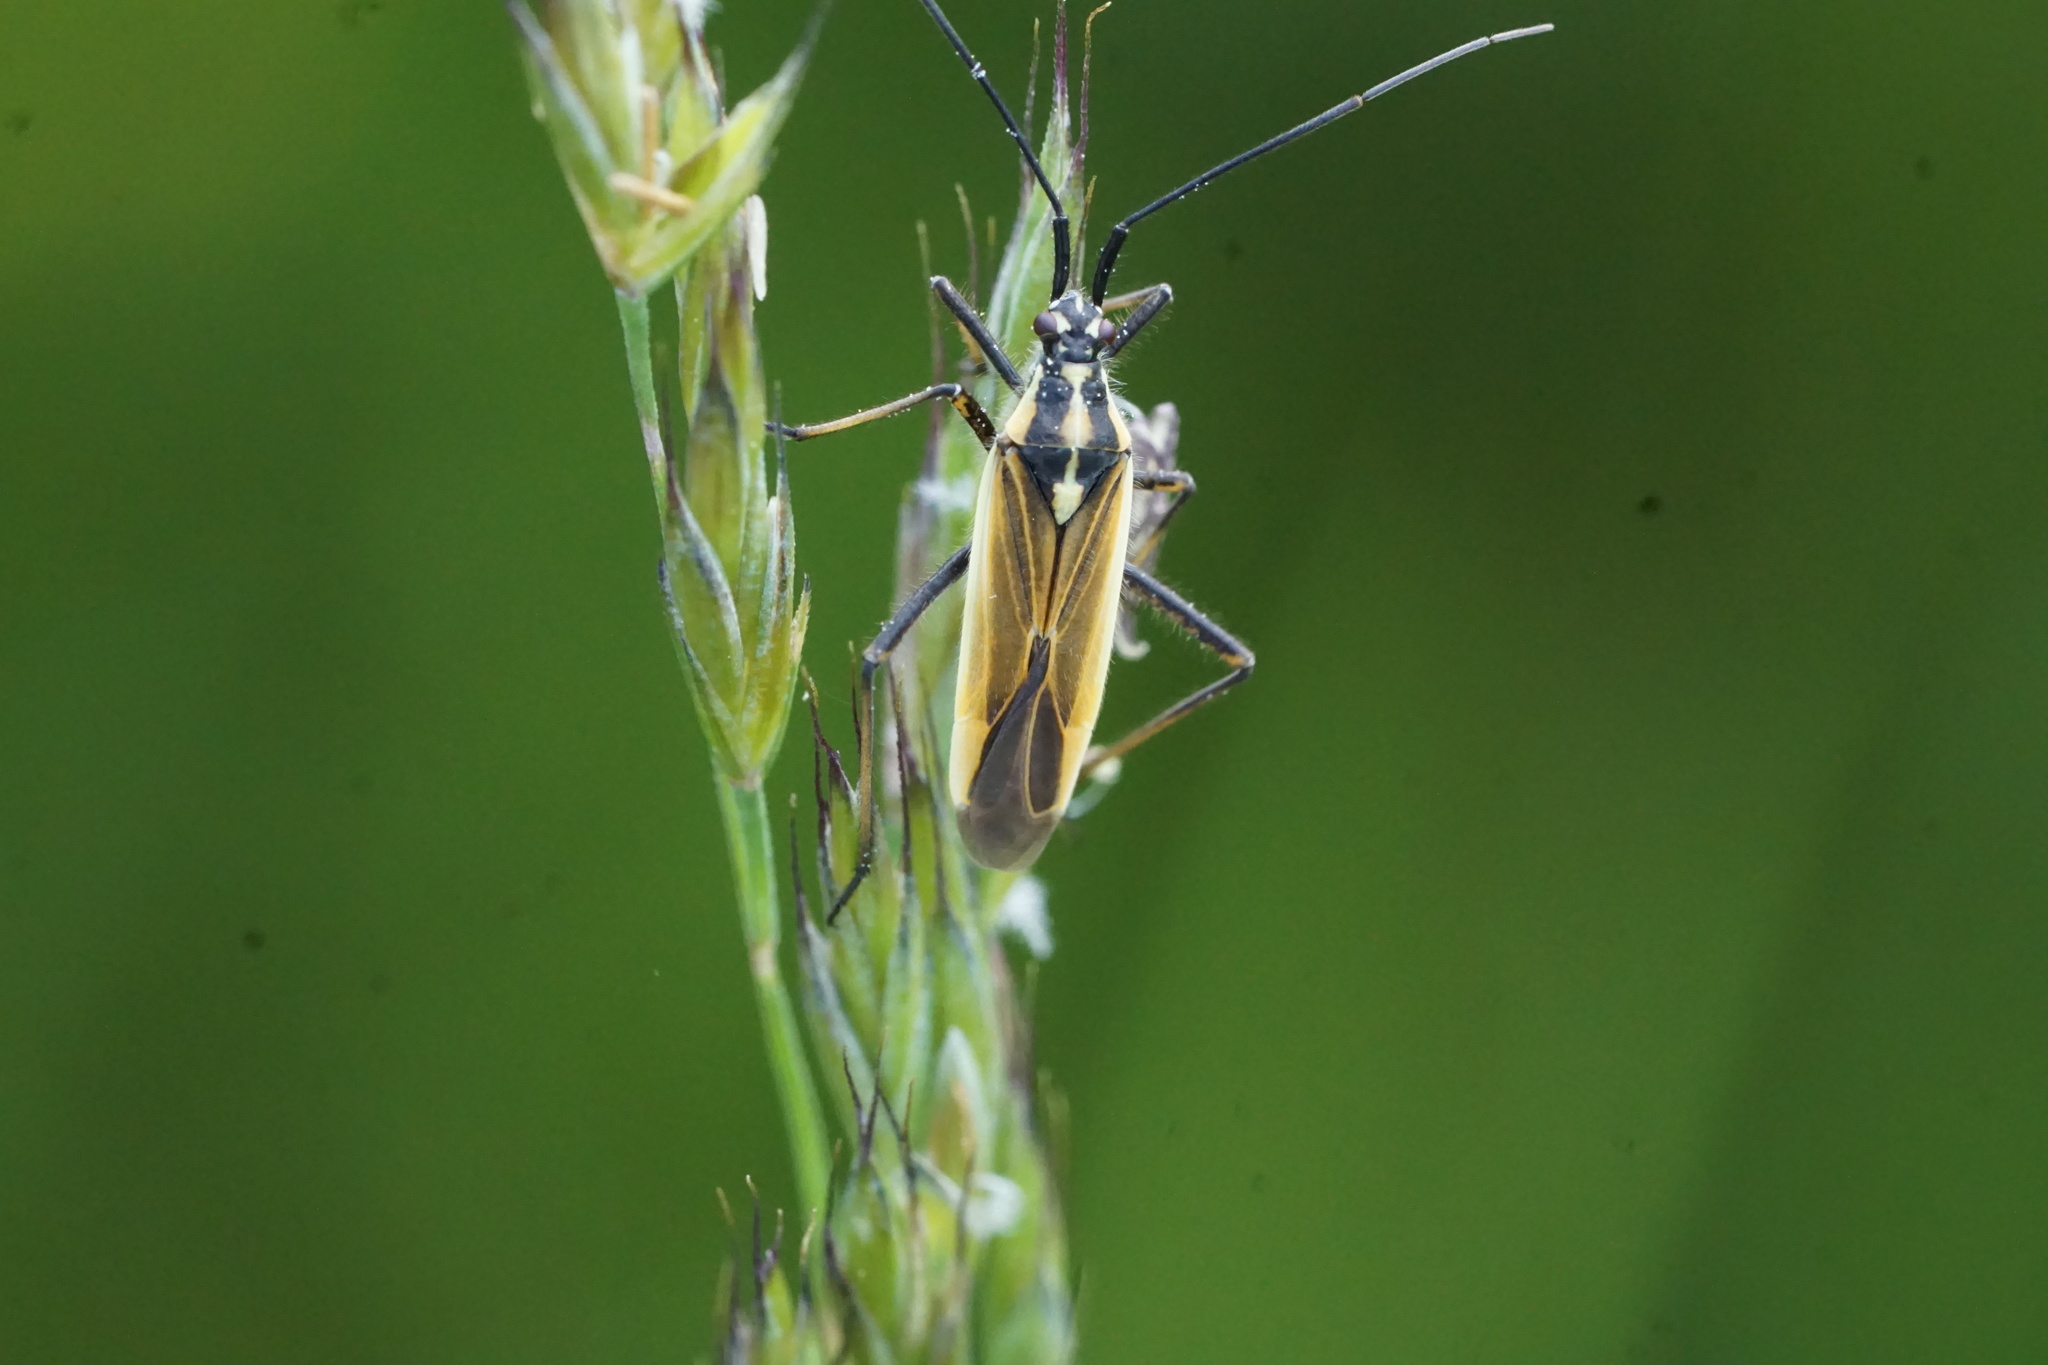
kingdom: Animalia
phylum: Arthropoda
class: Insecta
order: Hemiptera
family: Miridae
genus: Leptopterna
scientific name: Leptopterna dolabrata
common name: Meadow plant bug
